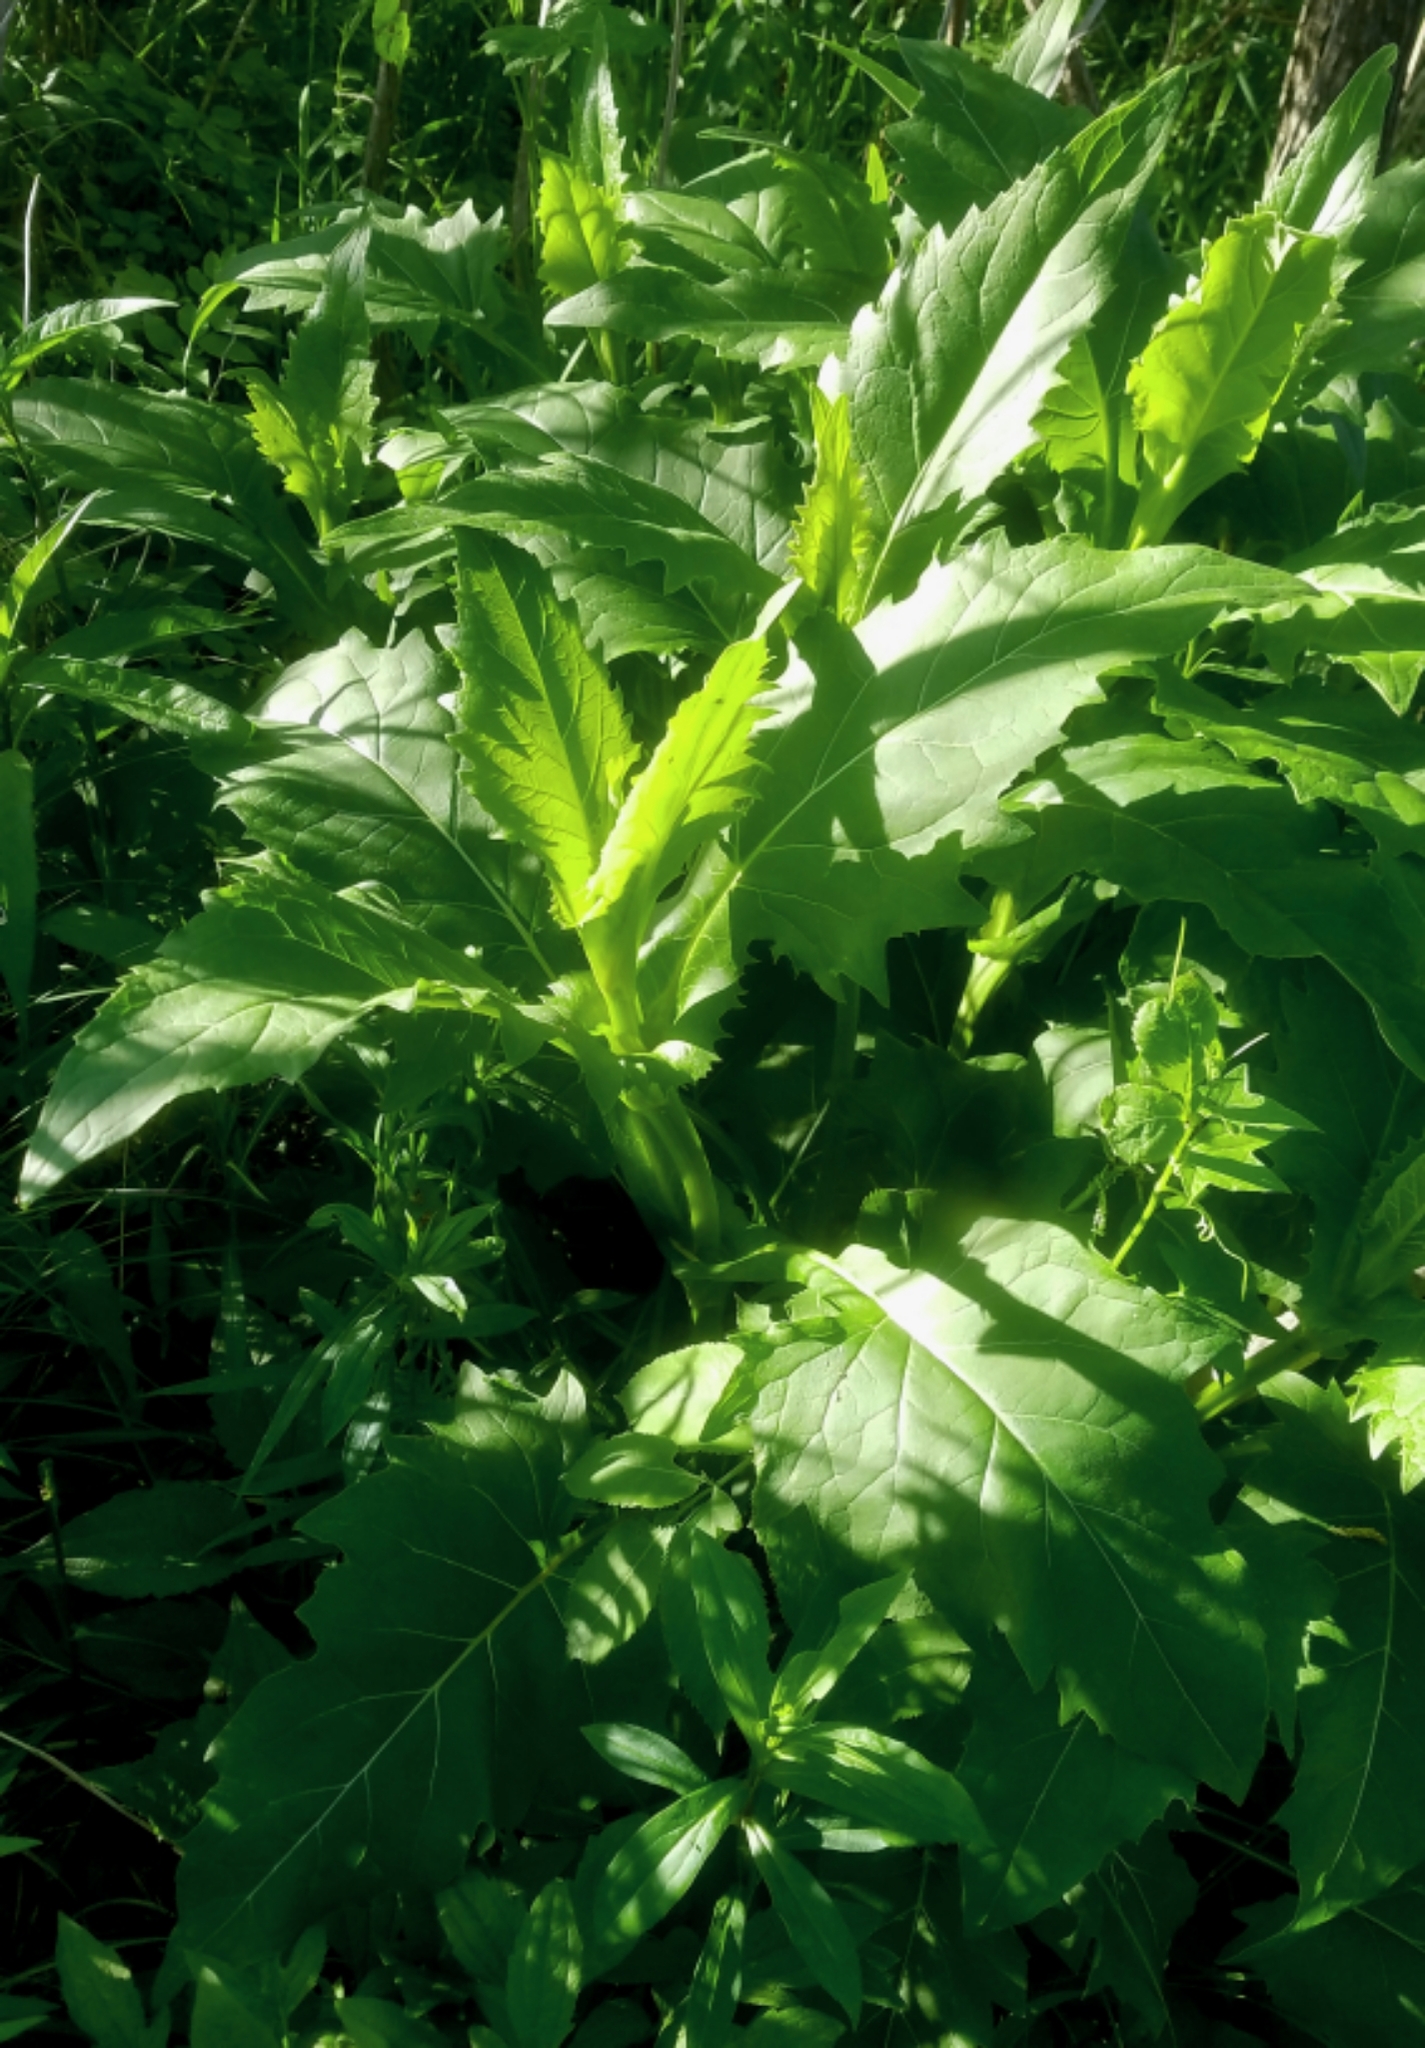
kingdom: Plantae
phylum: Tracheophyta
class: Magnoliopsida
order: Asterales
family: Asteraceae
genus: Silphium
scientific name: Silphium perfoliatum
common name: Cup-plant
